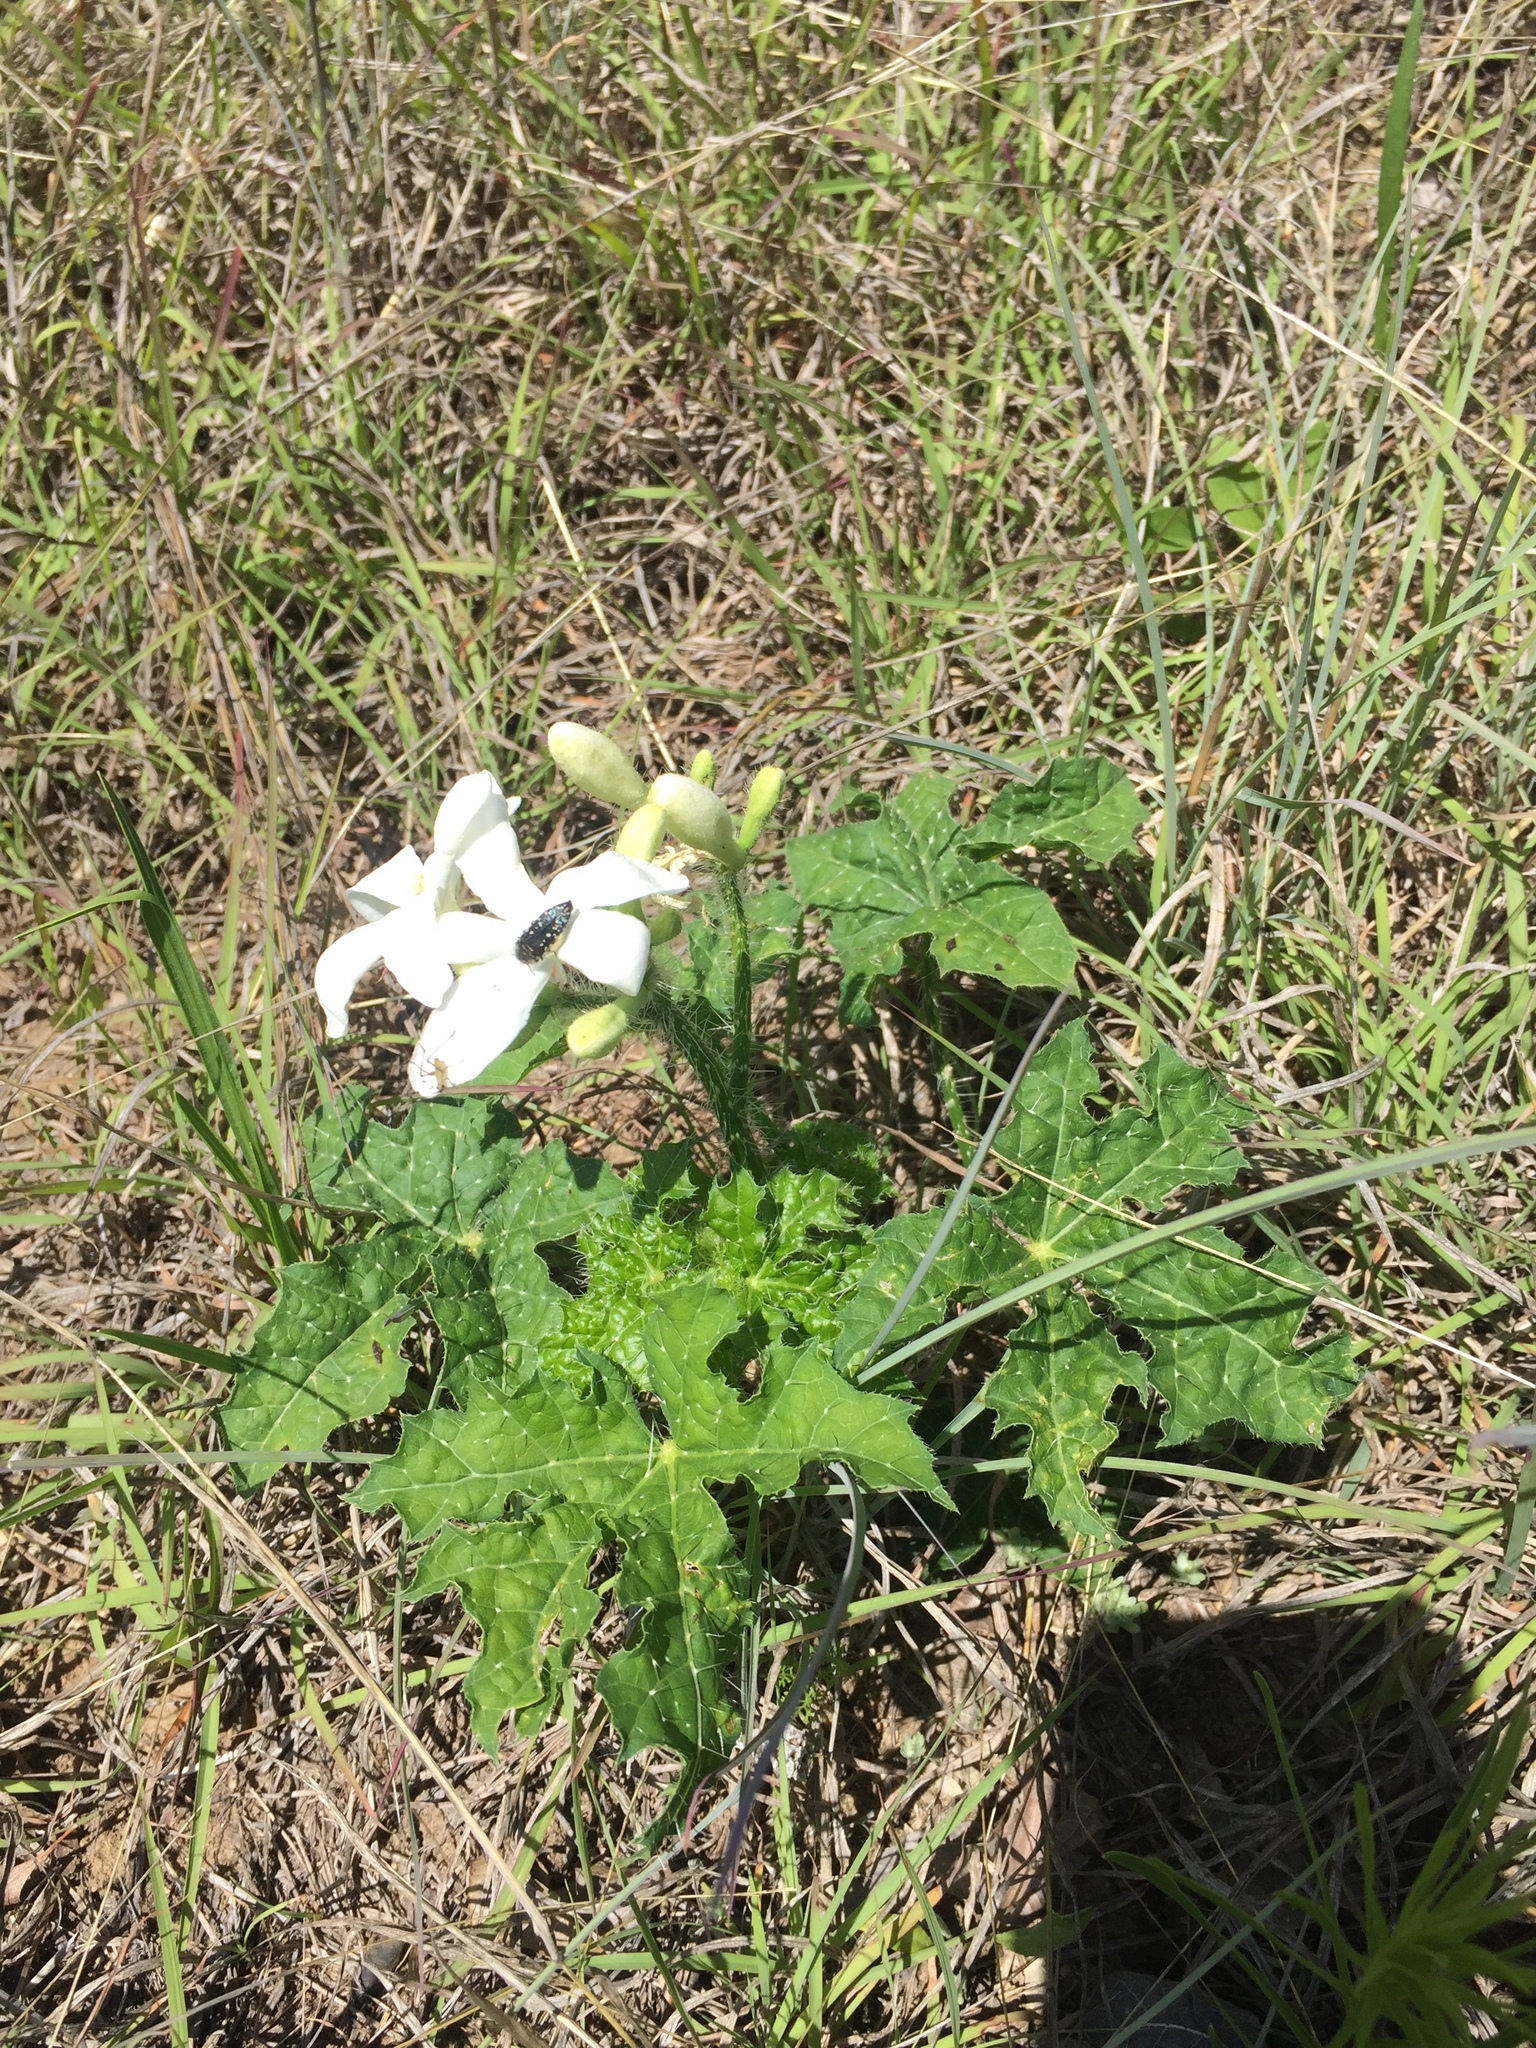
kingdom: Plantae
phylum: Tracheophyta
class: Magnoliopsida
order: Malpighiales
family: Euphorbiaceae
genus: Cnidoscolus
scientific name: Cnidoscolus texanus
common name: Texas bull-nettle
